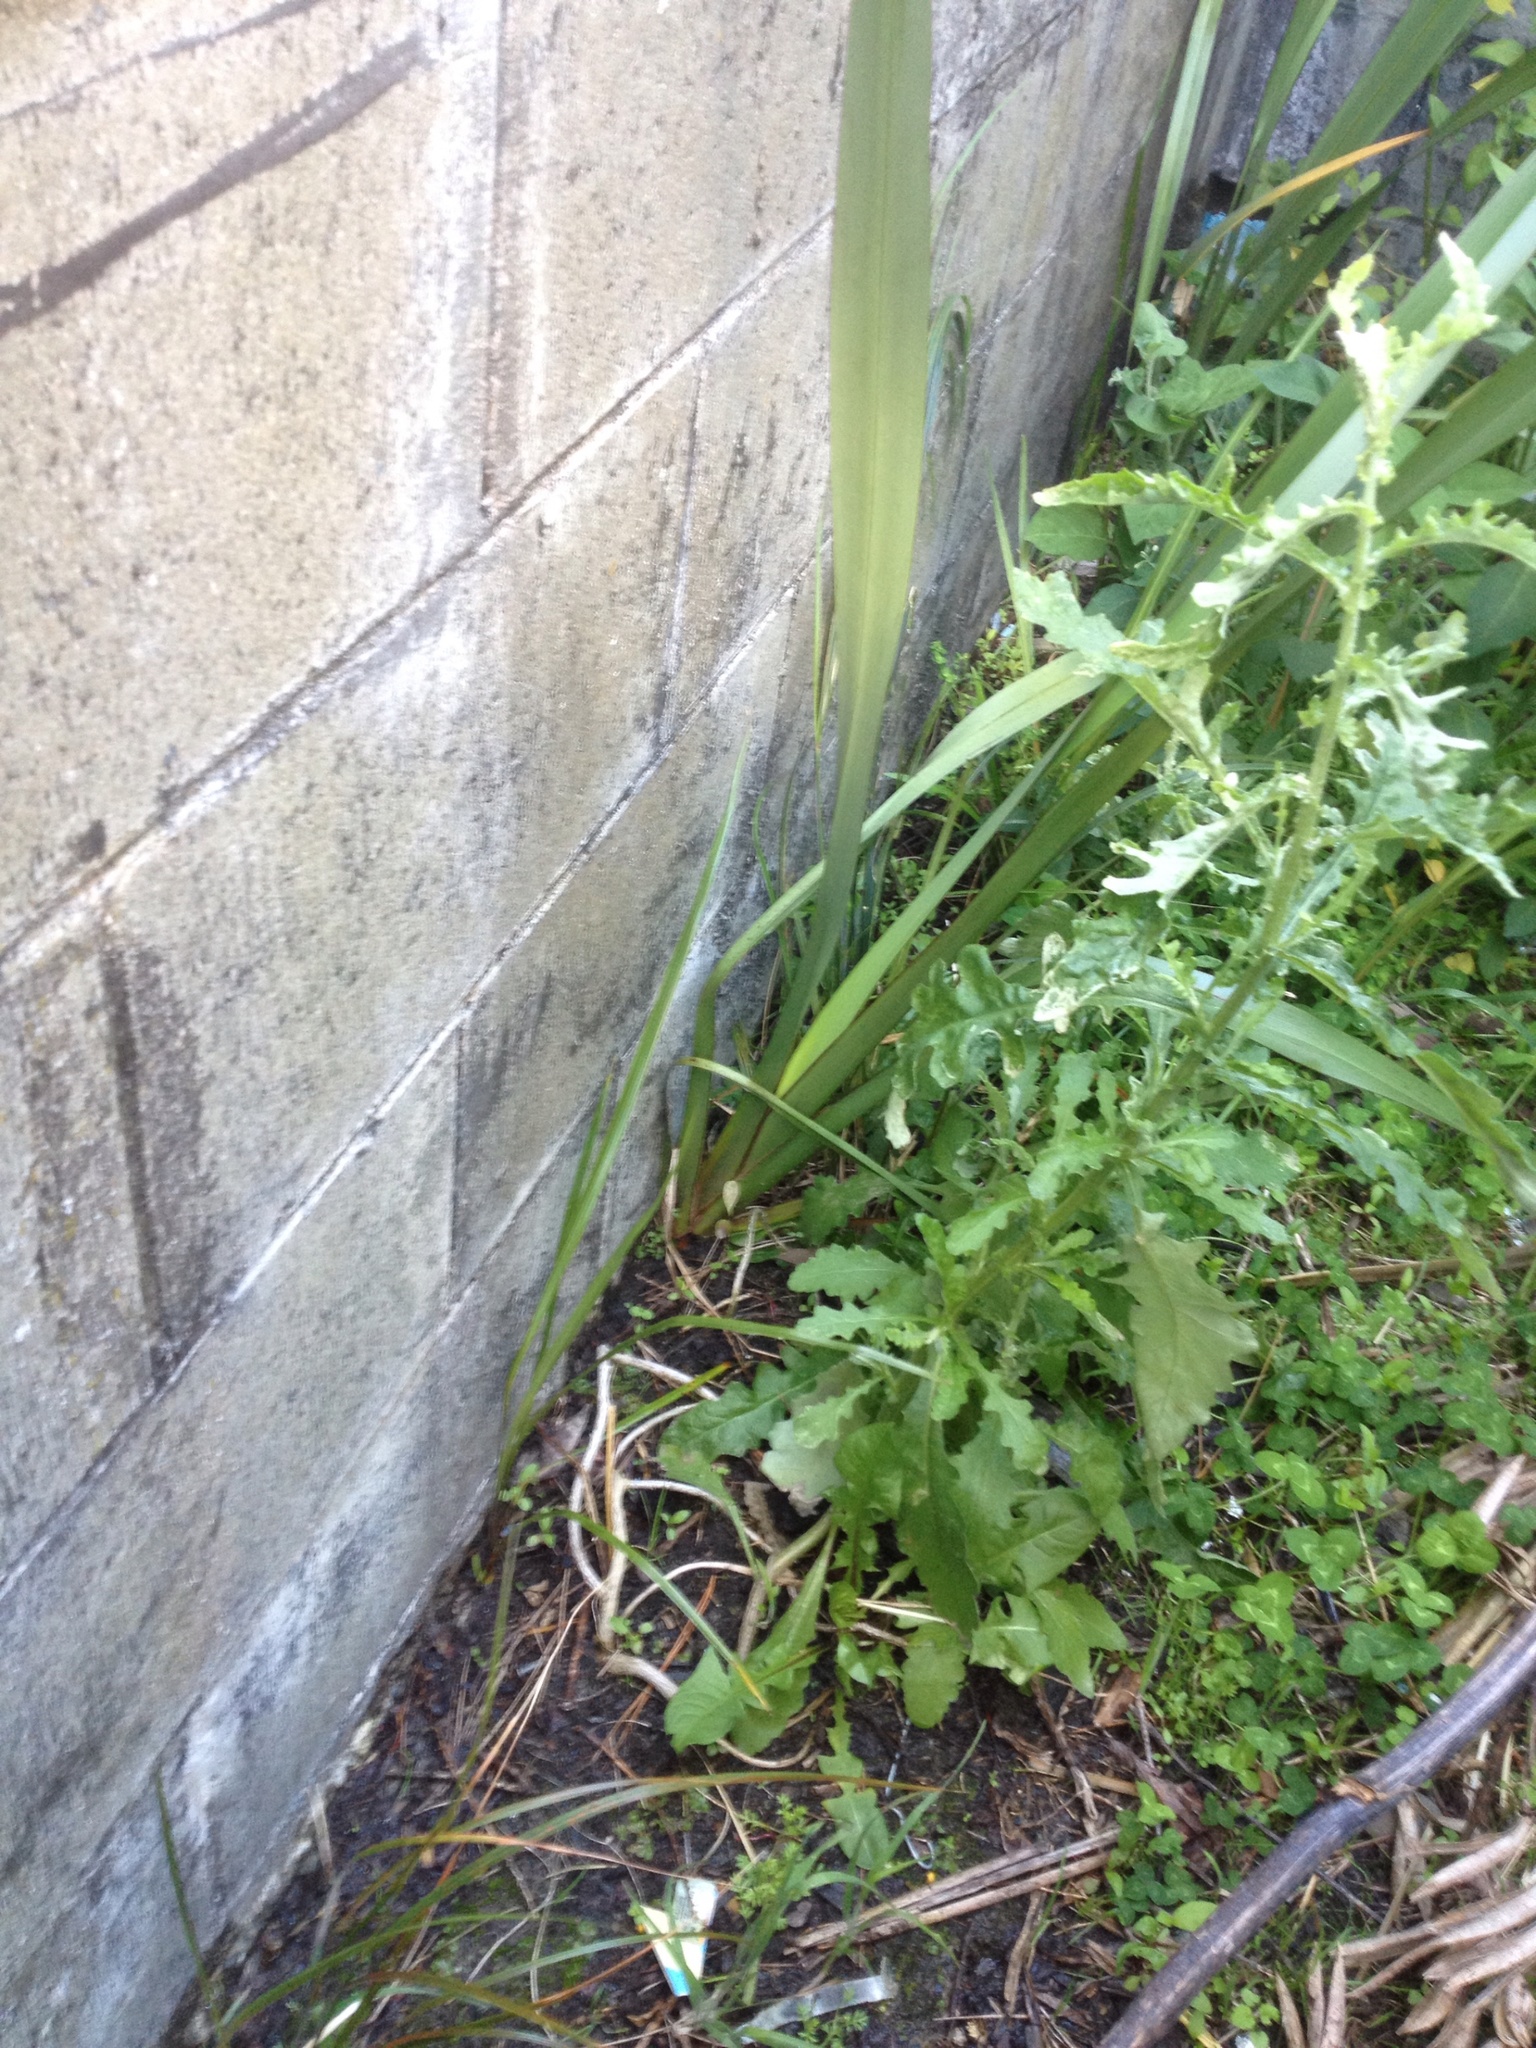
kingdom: Plantae
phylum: Tracheophyta
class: Magnoliopsida
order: Asterales
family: Asteraceae
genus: Senecio
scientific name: Senecio glomeratus
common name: Cutleaf burnweed
